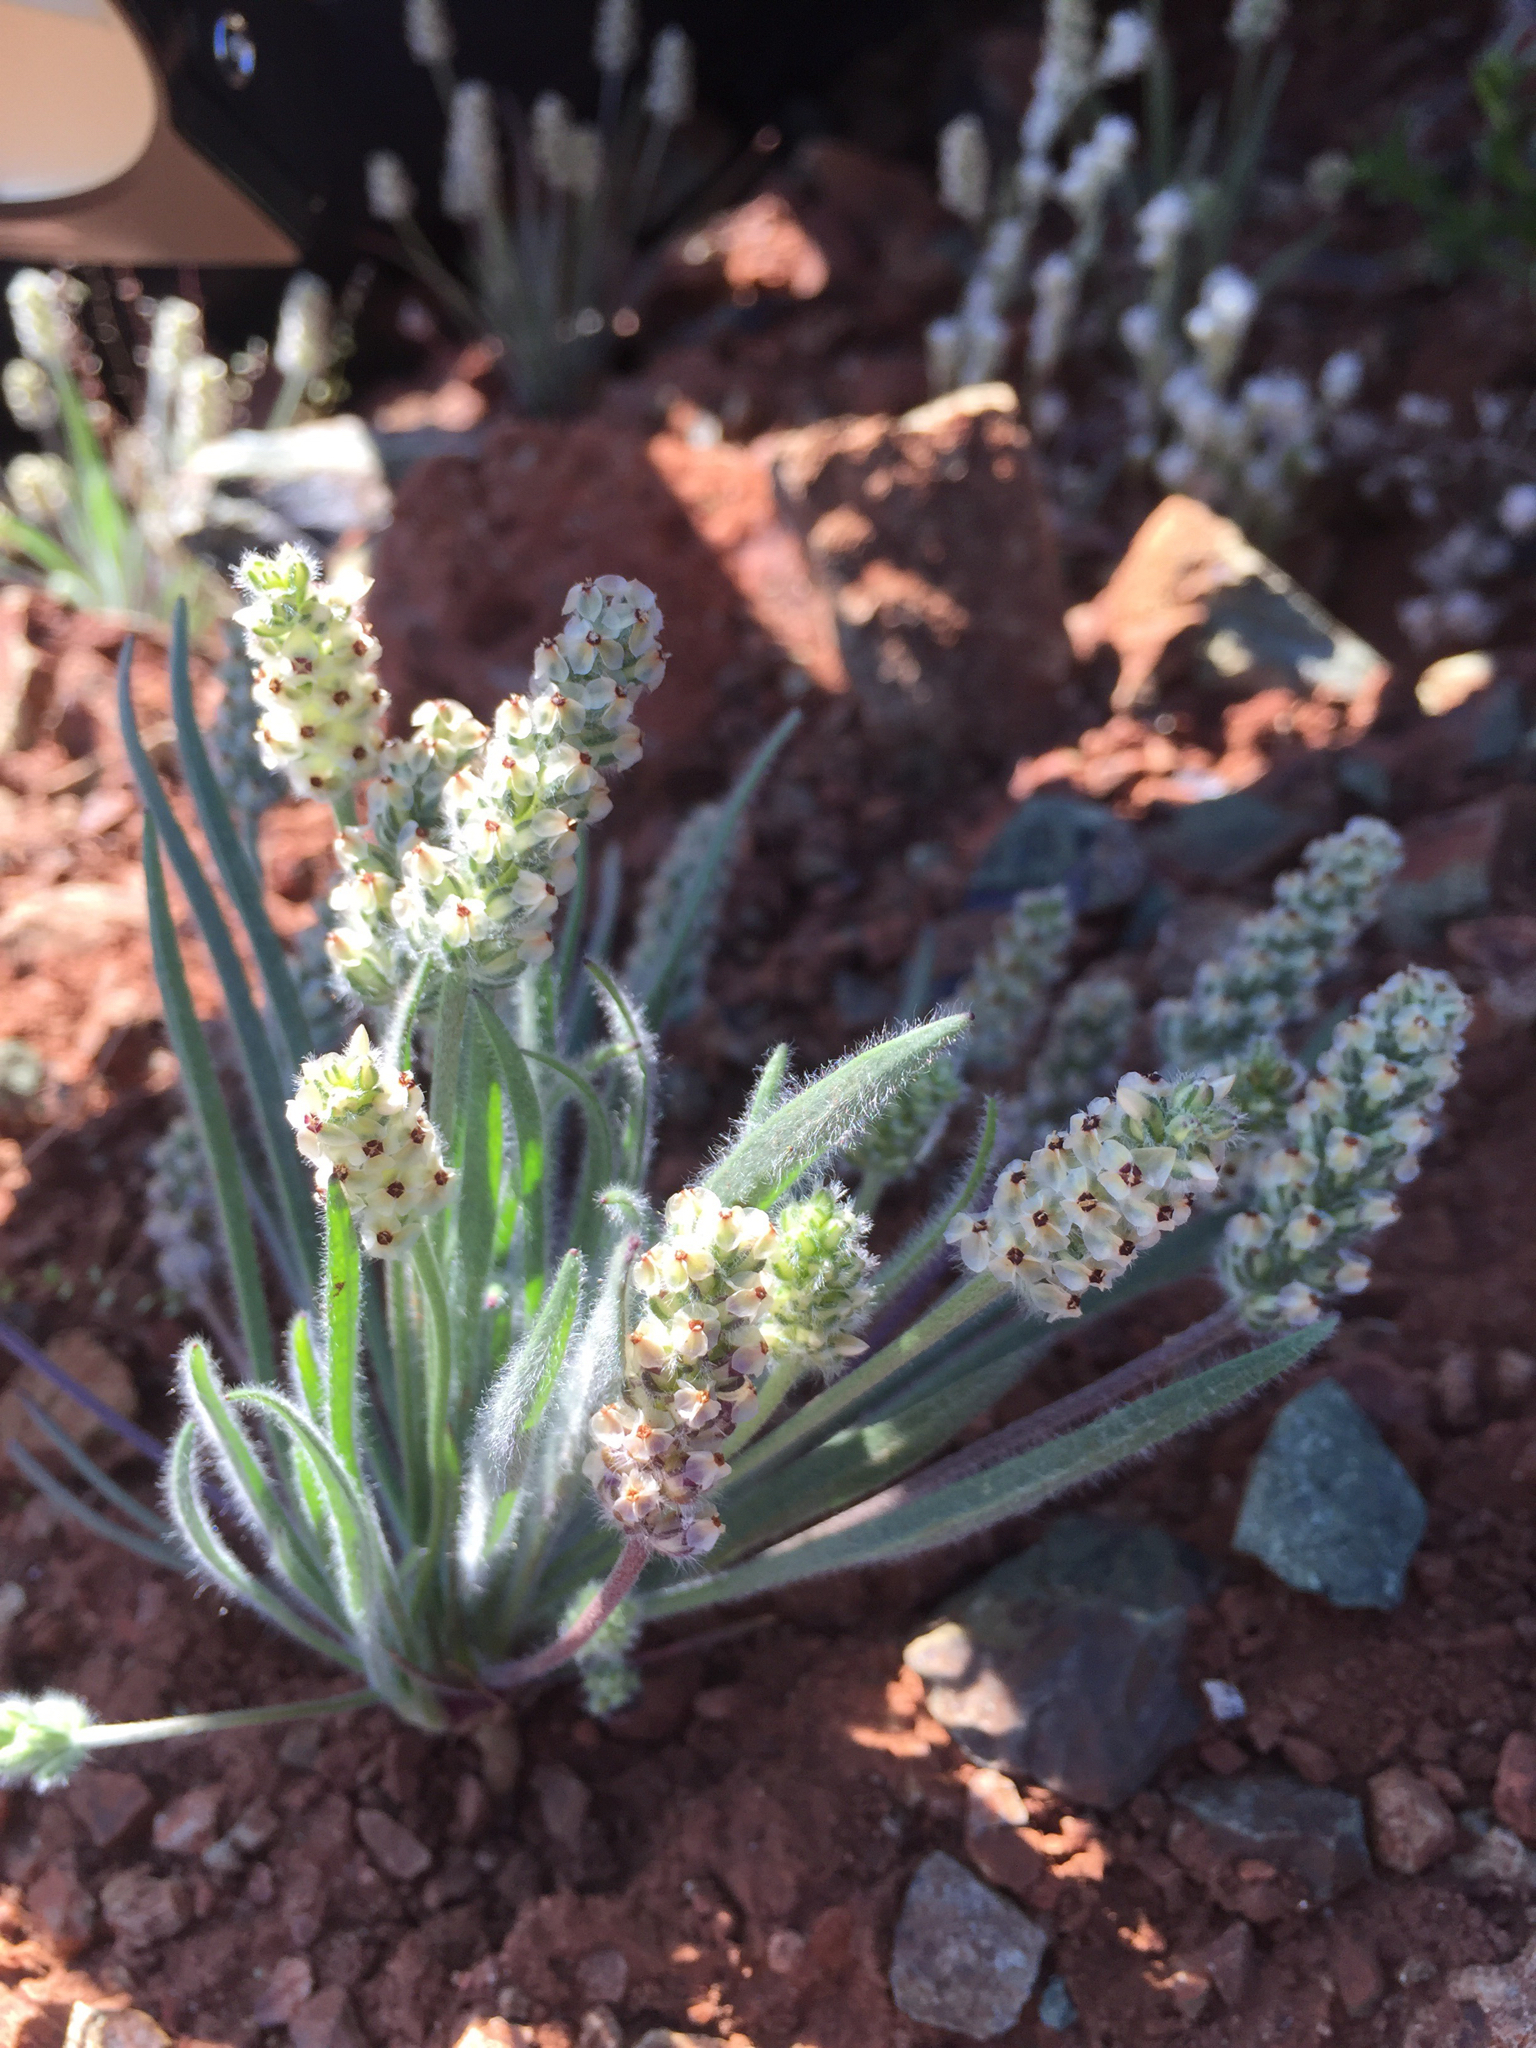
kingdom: Plantae
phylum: Tracheophyta
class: Magnoliopsida
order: Lamiales
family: Plantaginaceae
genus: Plantago
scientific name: Plantago erecta
